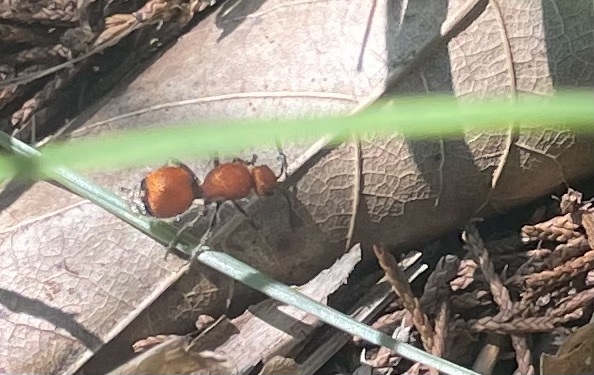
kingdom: Animalia
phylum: Arthropoda
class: Insecta
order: Hymenoptera
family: Mutillidae
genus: Dasymutilla
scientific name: Dasymutilla
